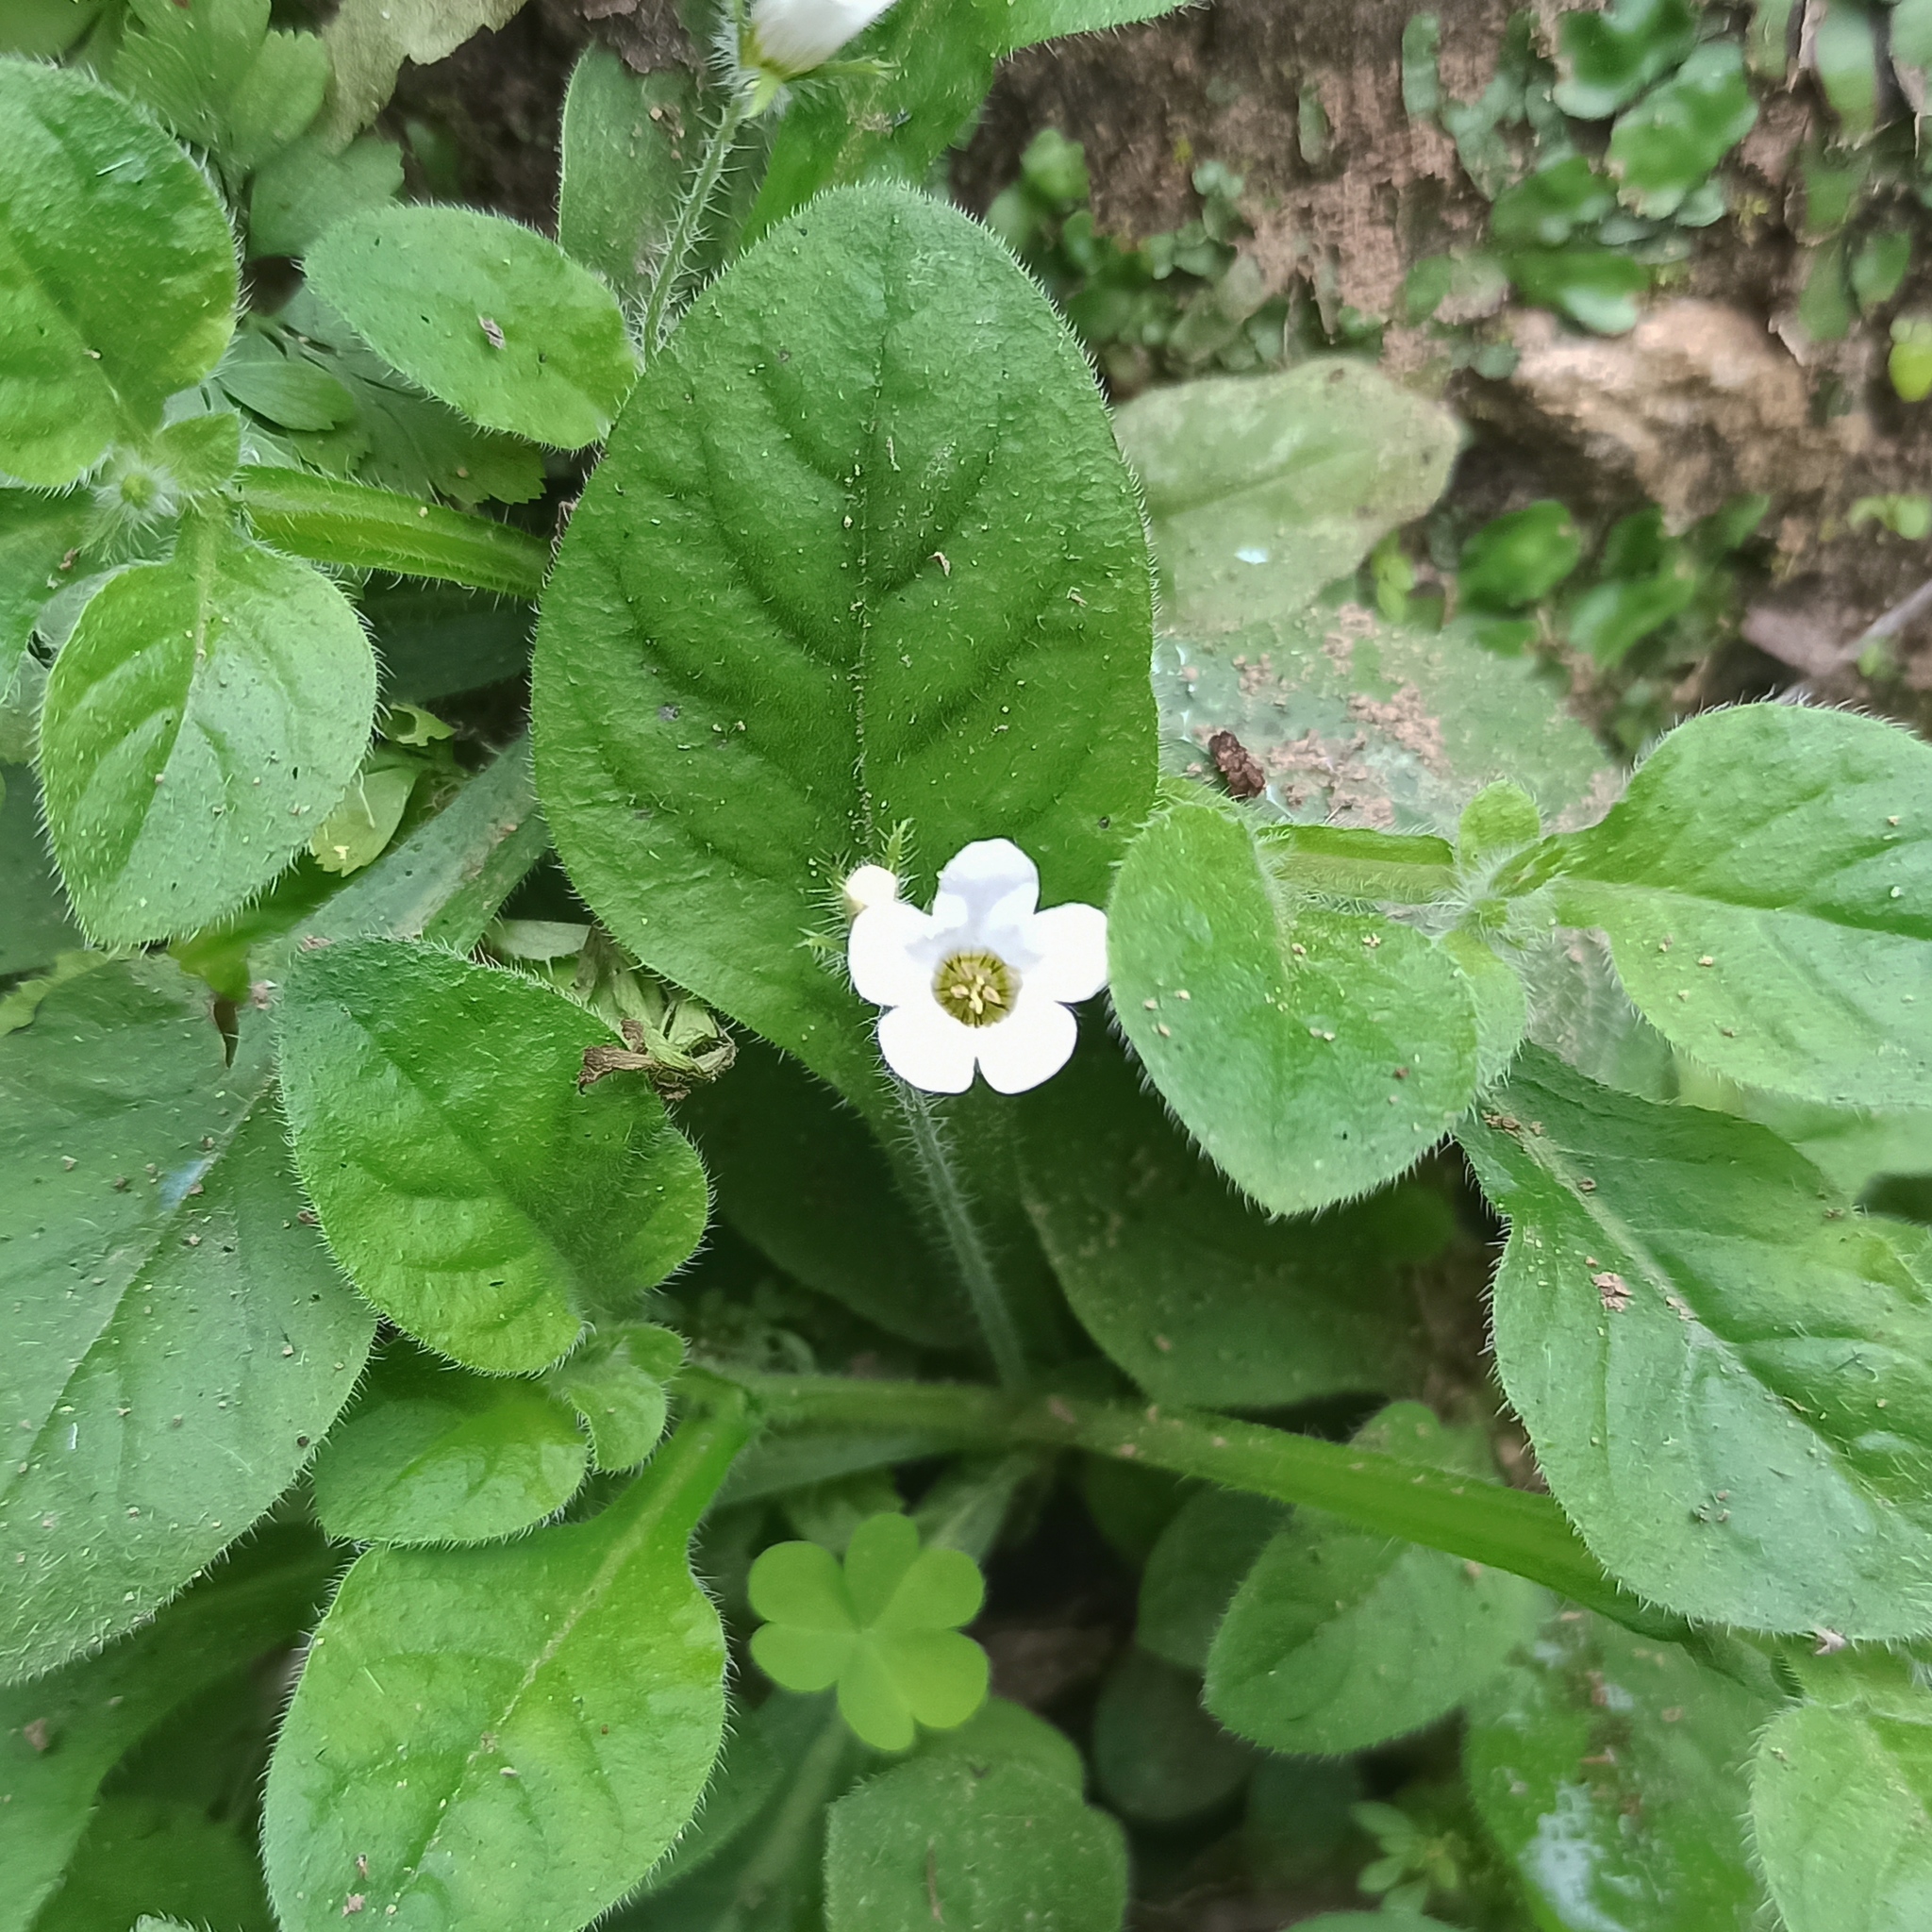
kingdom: Plantae
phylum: Tracheophyta
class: Magnoliopsida
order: Boraginales
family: Namaceae
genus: Nama
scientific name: Nama jamaicensis
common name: Jamaicanweed
